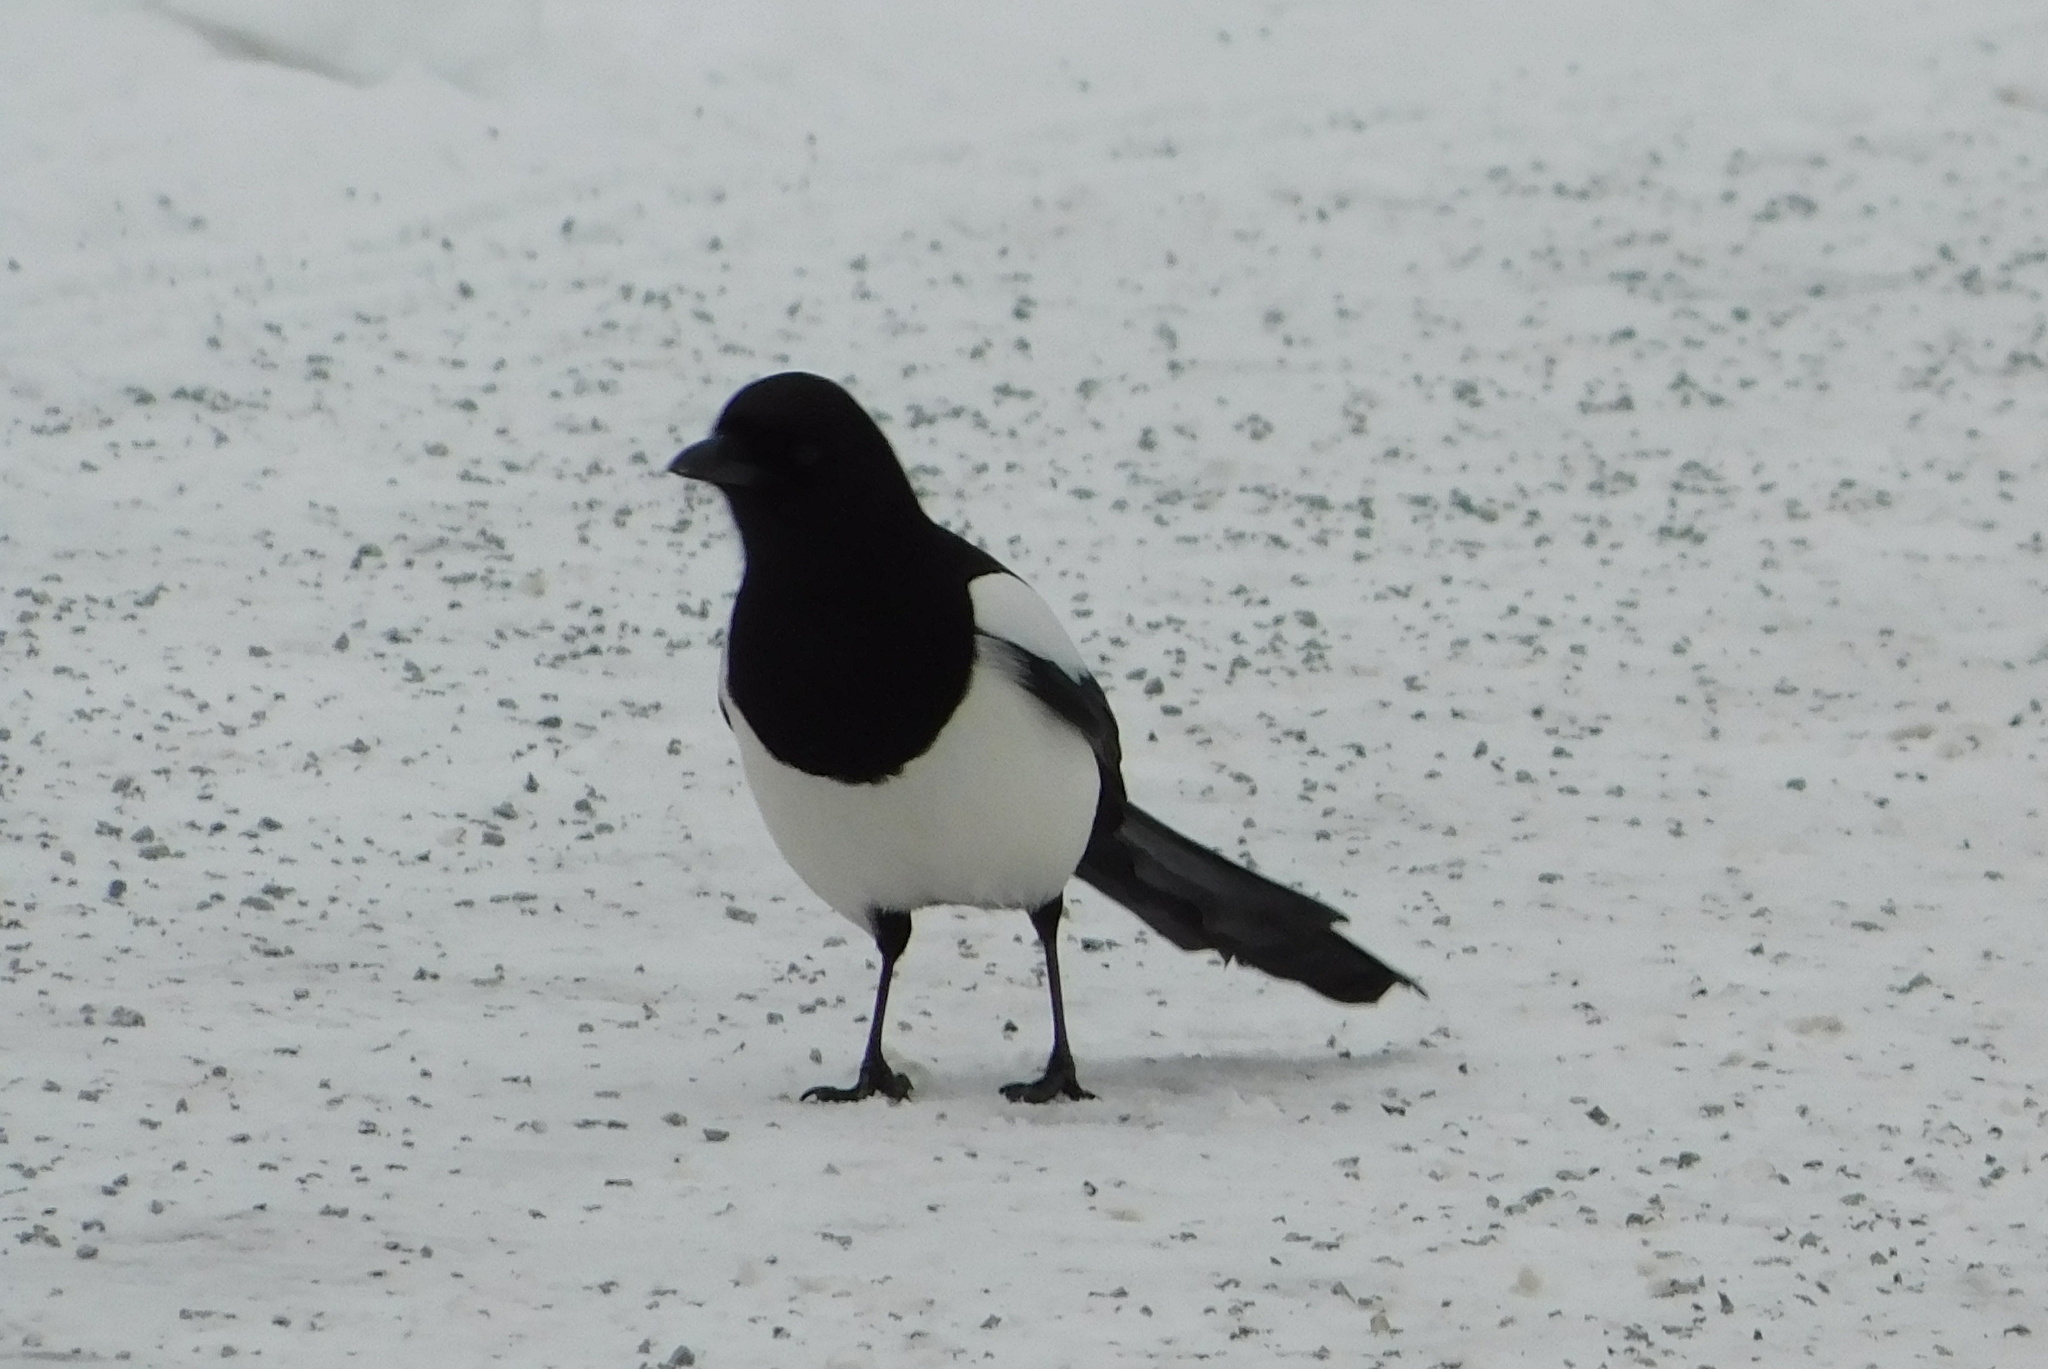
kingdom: Animalia
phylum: Chordata
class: Aves
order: Passeriformes
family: Corvidae
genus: Pica
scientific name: Pica pica
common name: Eurasian magpie
